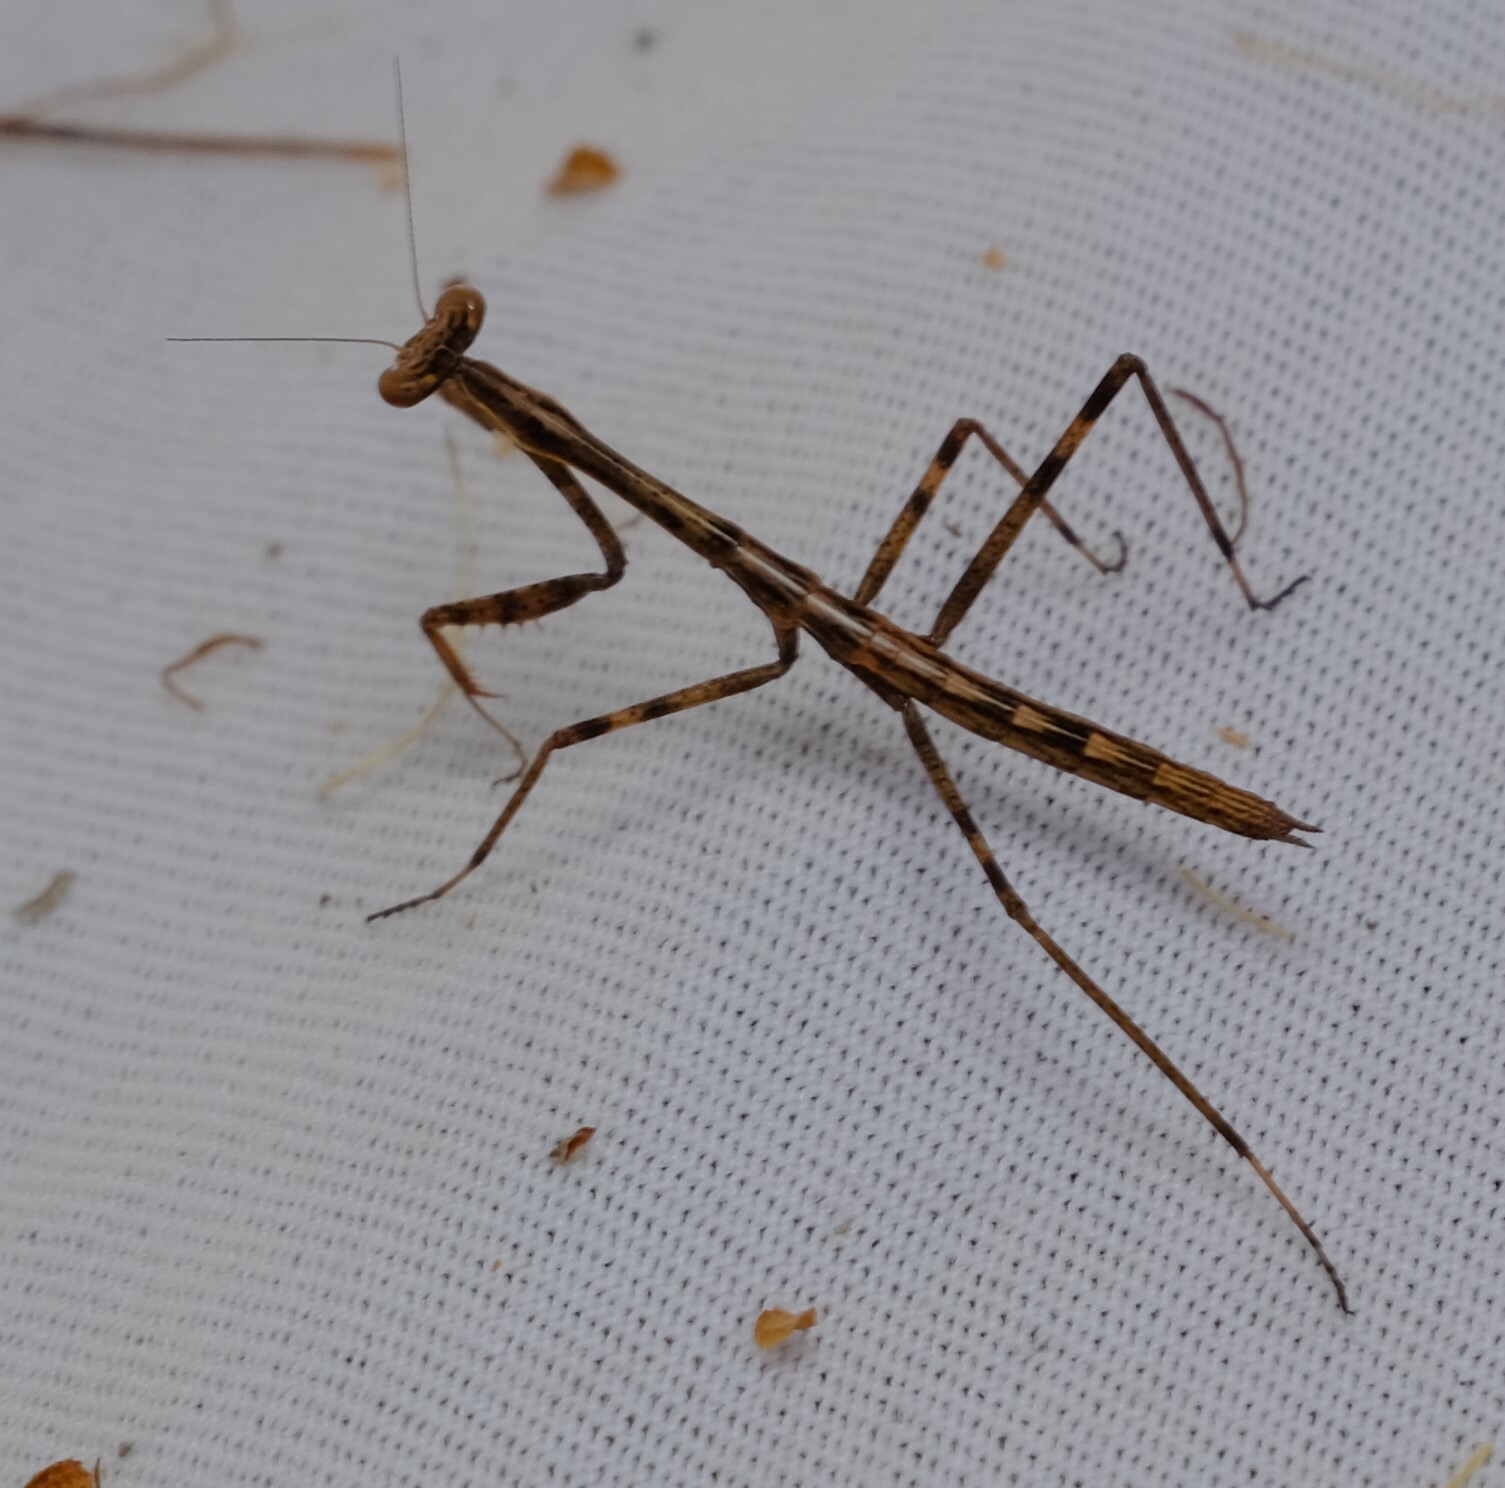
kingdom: Animalia
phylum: Arthropoda
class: Insecta
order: Mantodea
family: Mantidae
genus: Archimantis
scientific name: Archimantis latistyla
